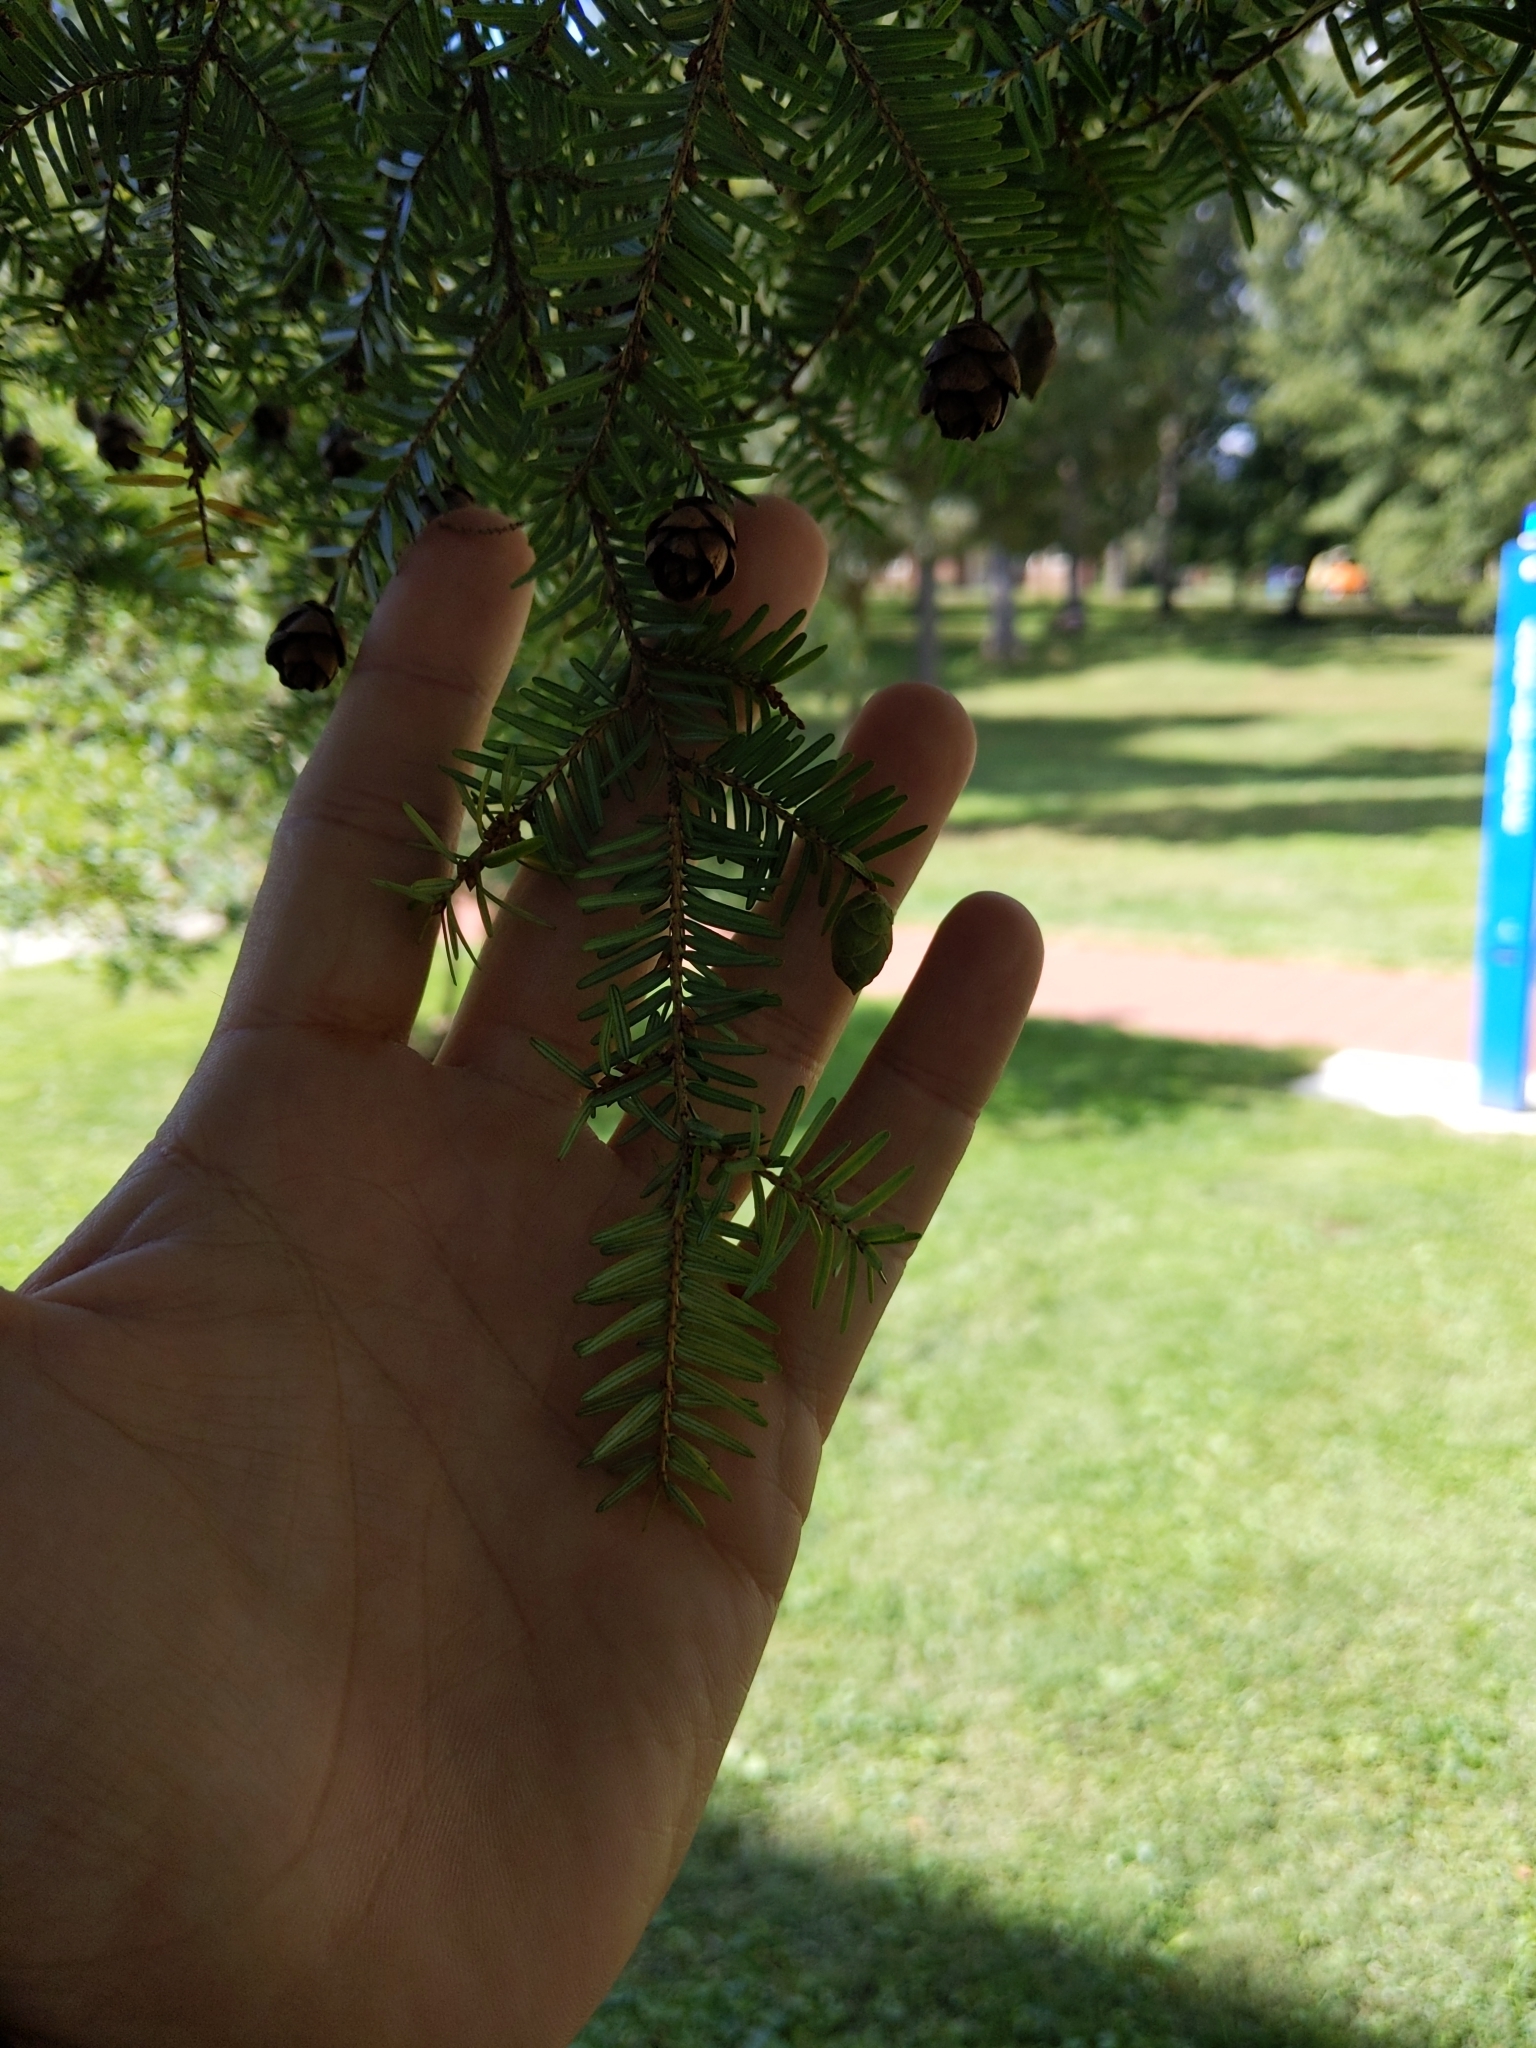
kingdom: Plantae
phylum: Tracheophyta
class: Pinopsida
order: Pinales
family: Pinaceae
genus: Tsuga
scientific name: Tsuga canadensis
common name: Eastern hemlock
